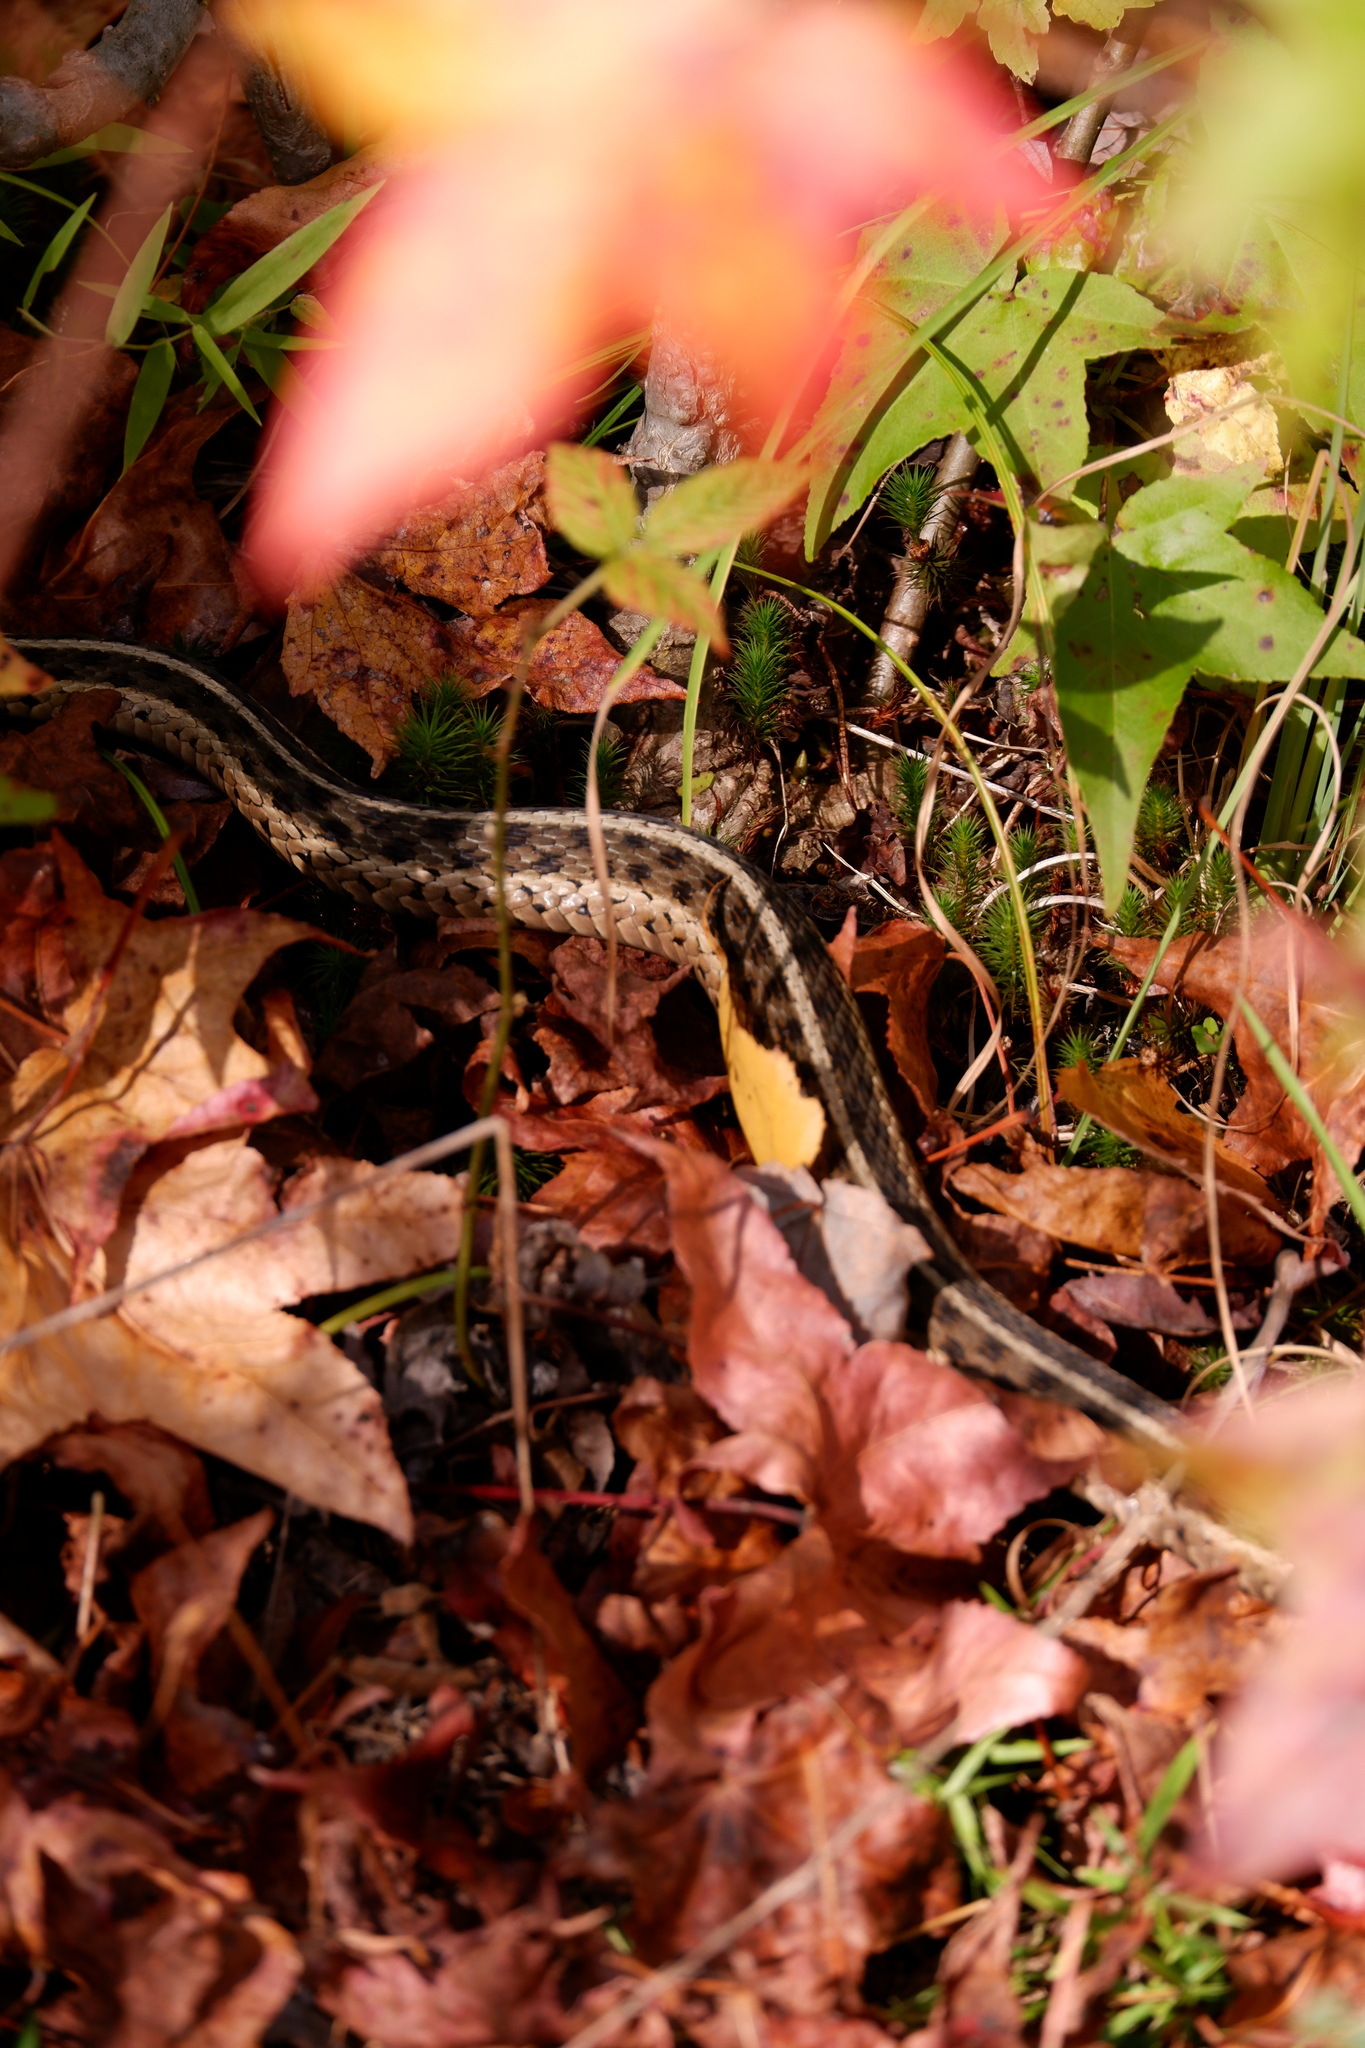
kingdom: Animalia
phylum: Chordata
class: Squamata
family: Colubridae
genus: Thamnophis
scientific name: Thamnophis sirtalis
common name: Common garter snake
